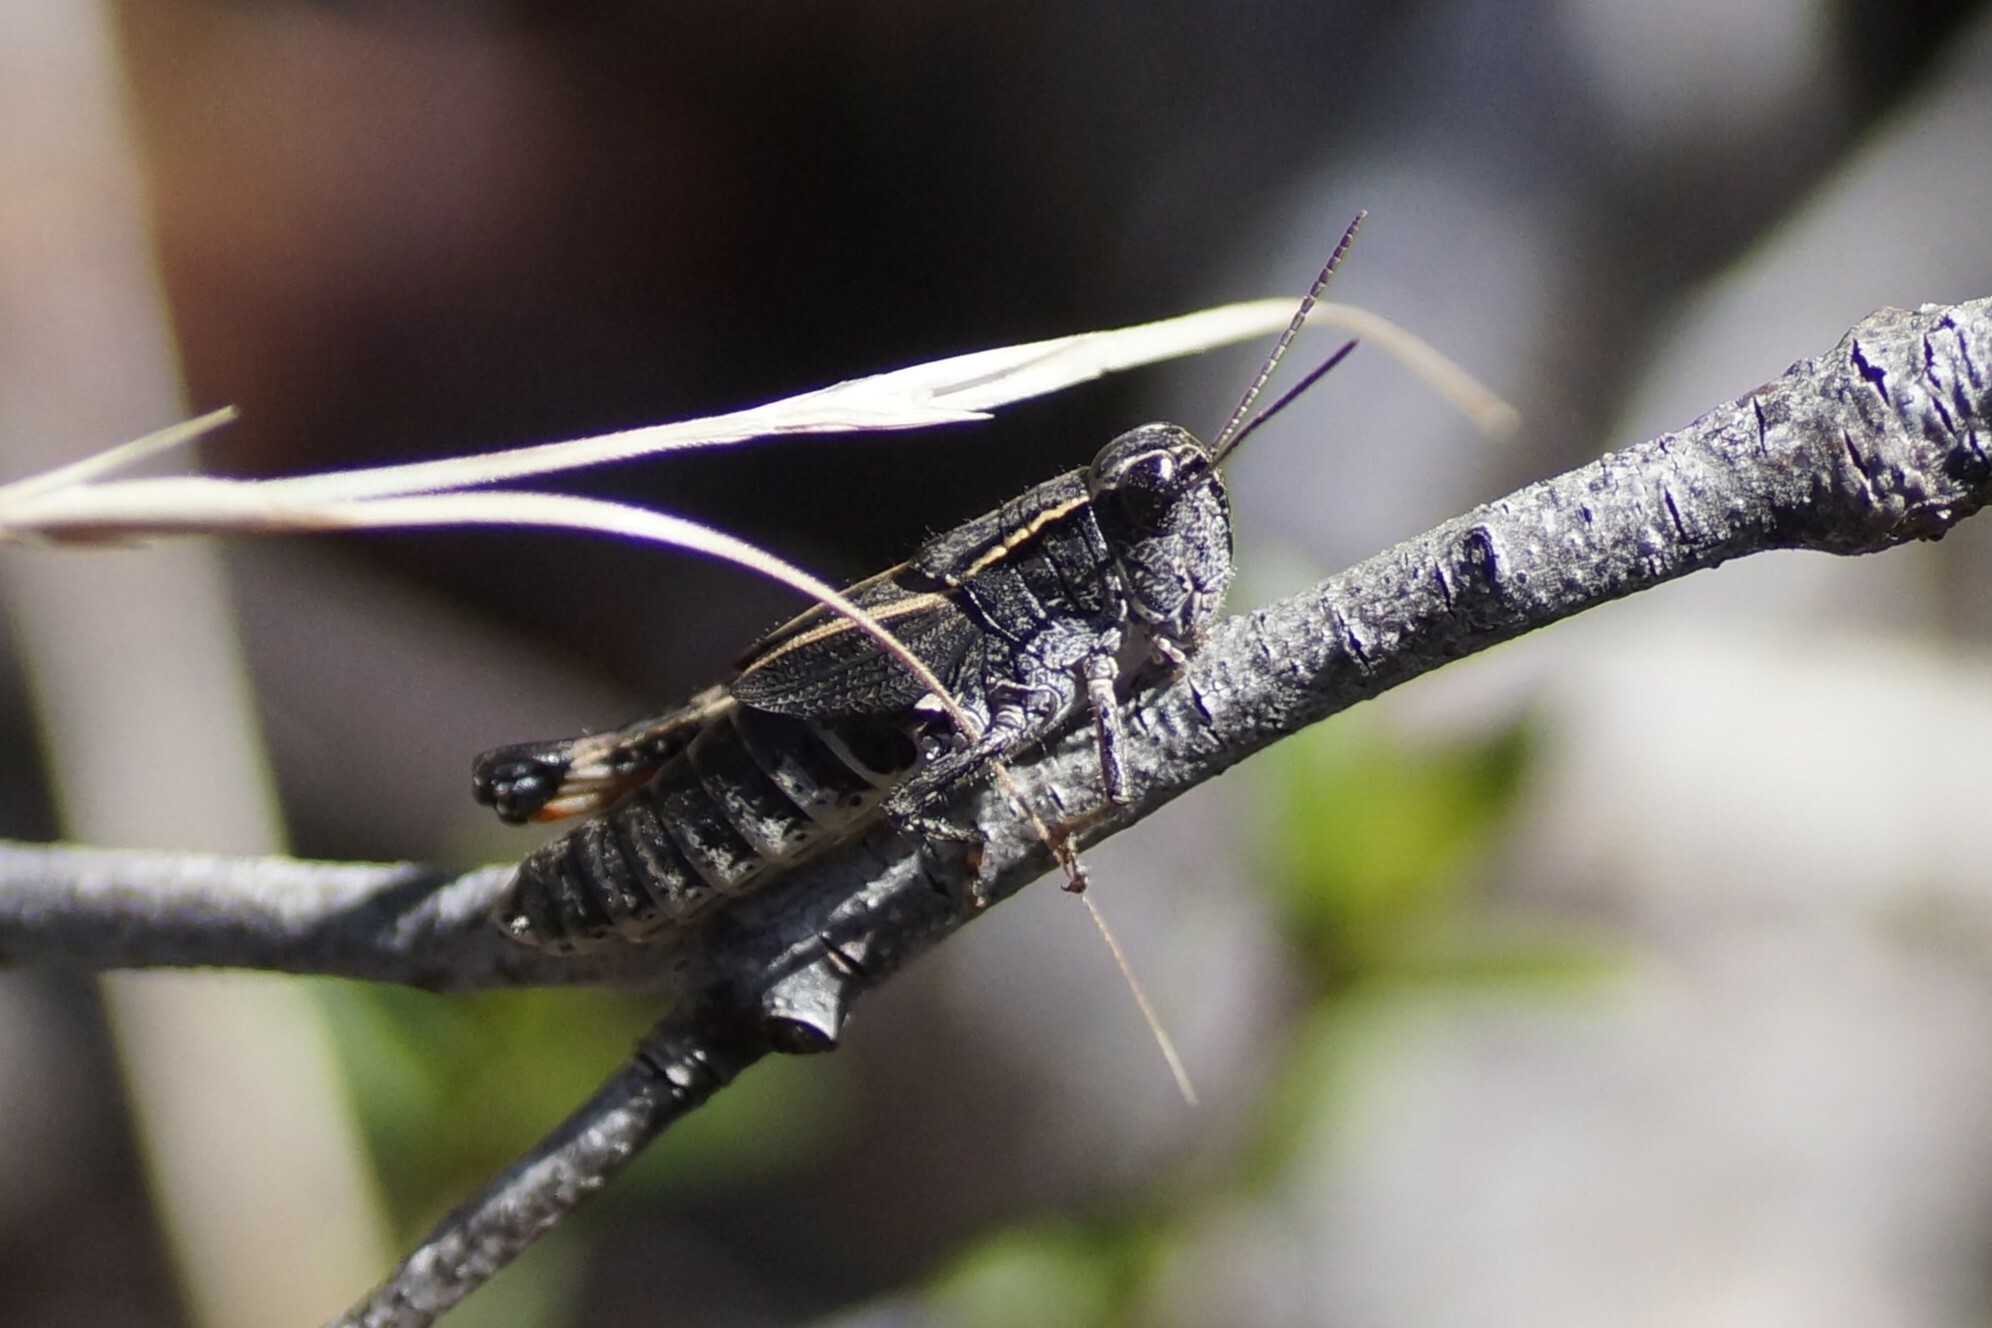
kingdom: Animalia
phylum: Arthropoda
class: Insecta
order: Orthoptera
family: Acrididae
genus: Phaulacridium
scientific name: Phaulacridium vittatum
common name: Wingless grasshopper
